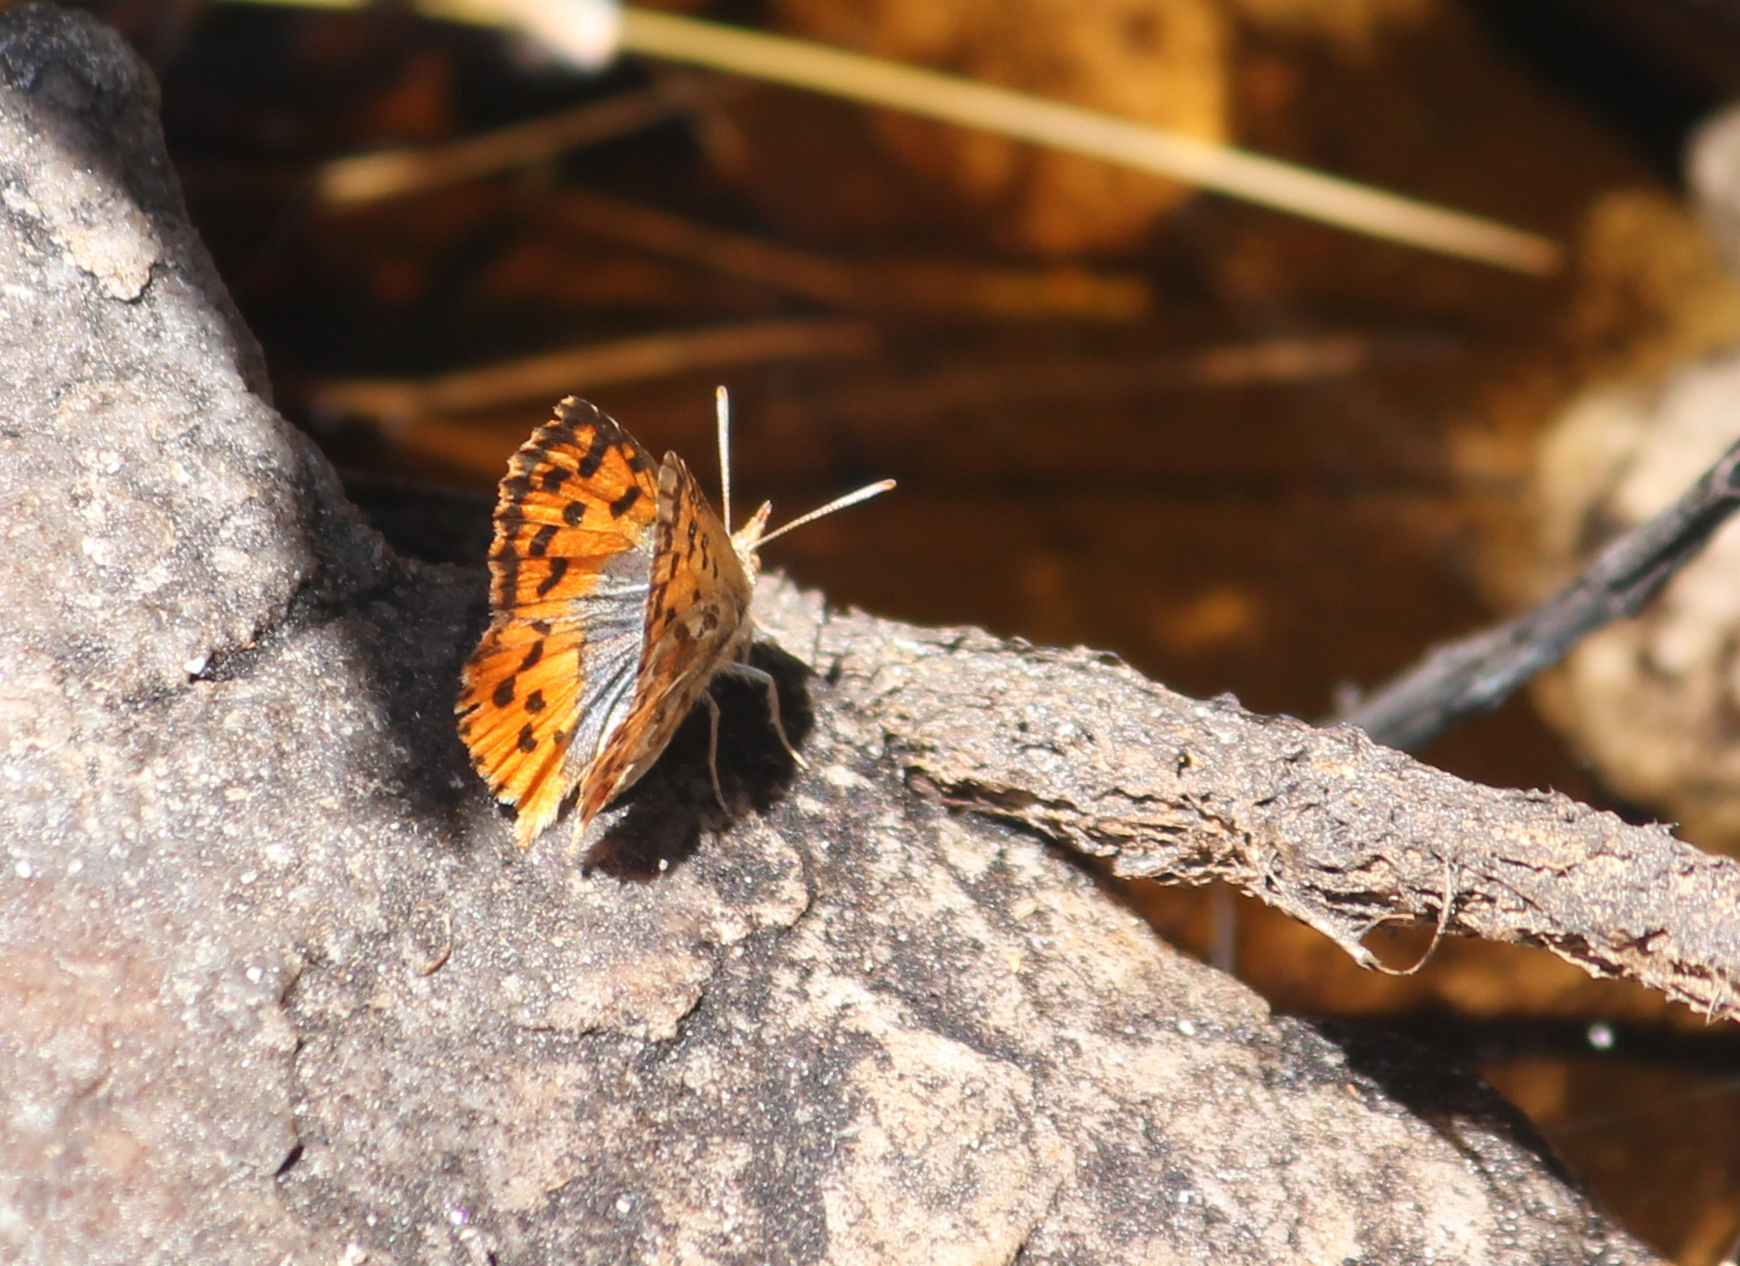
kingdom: Animalia
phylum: Arthropoda
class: Insecta
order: Lepidoptera
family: Lycaenidae
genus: Chrysoritis
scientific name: Chrysoritis thysbe
